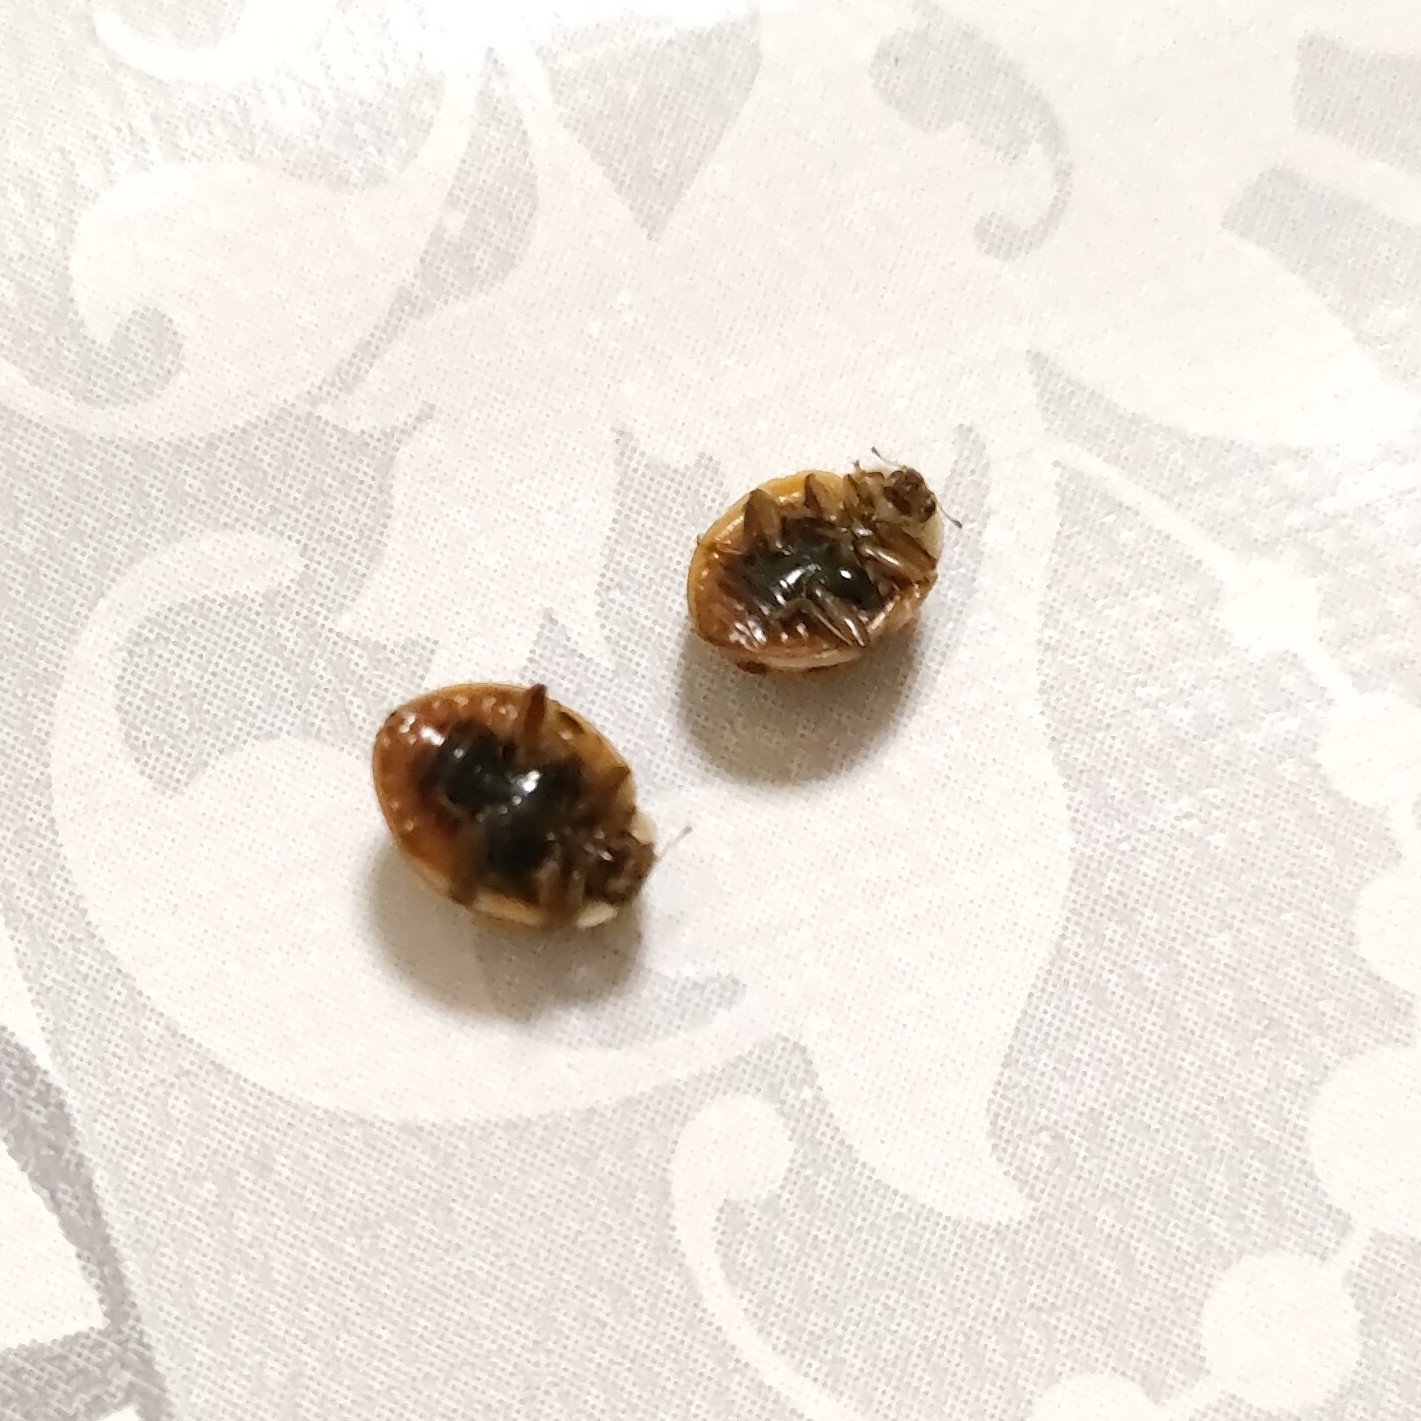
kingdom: Animalia
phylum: Arthropoda
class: Insecta
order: Coleoptera
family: Coccinellidae
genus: Harmonia
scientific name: Harmonia axyridis
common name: Harlequin ladybird
